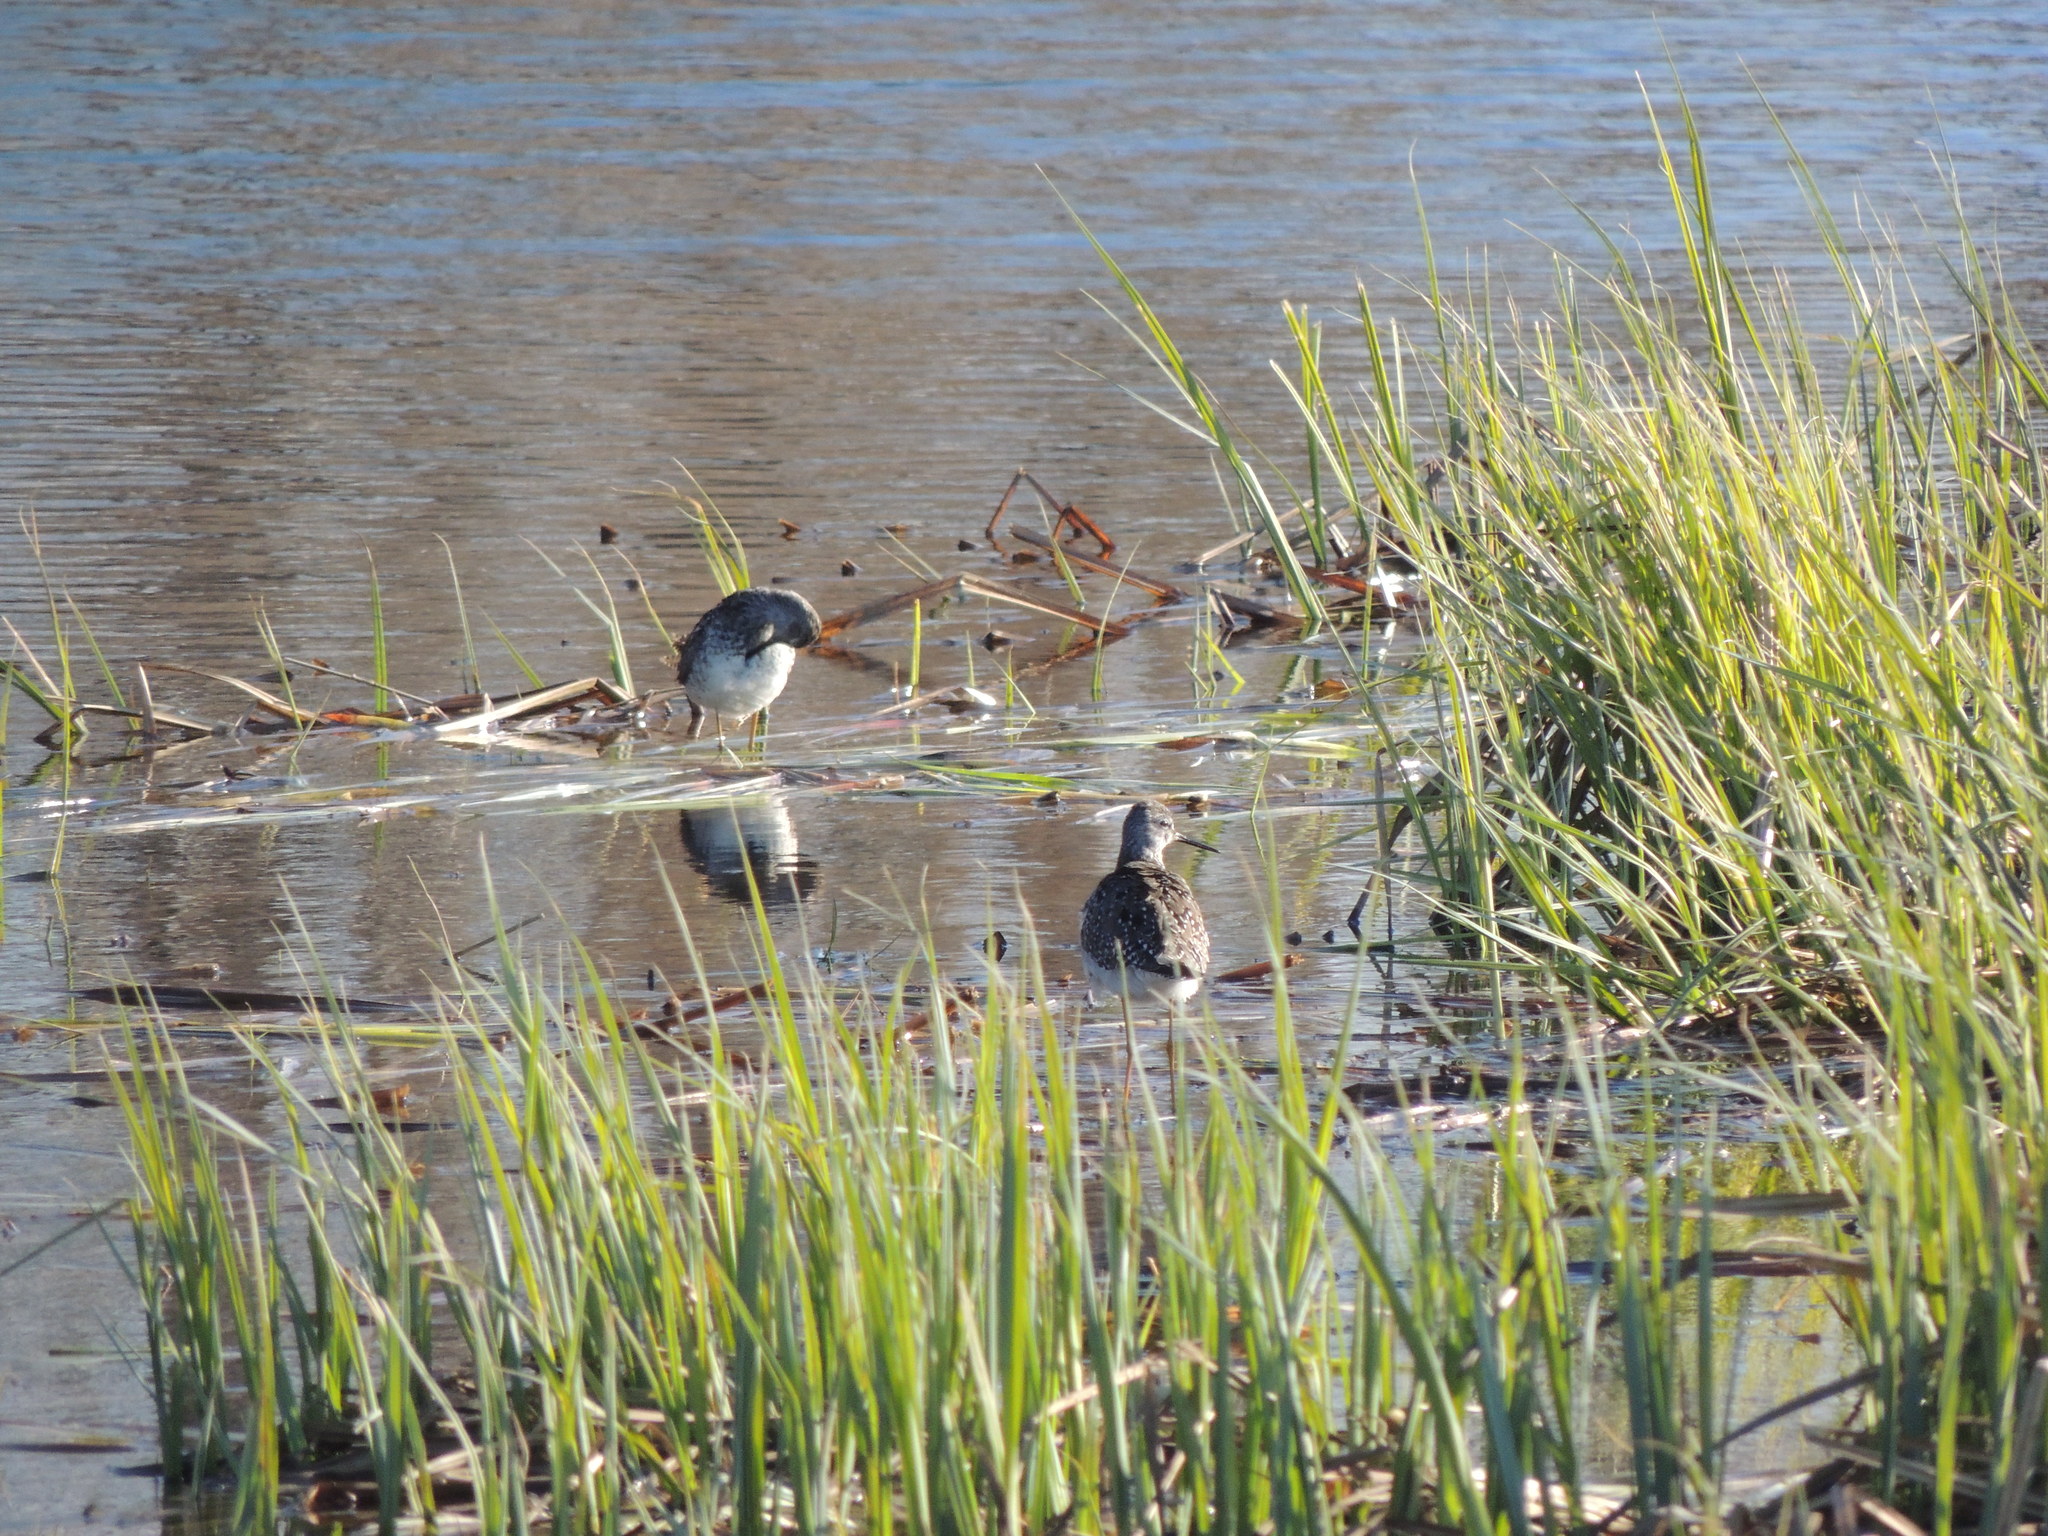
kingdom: Animalia
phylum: Chordata
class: Aves
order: Charadriiformes
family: Scolopacidae
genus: Tringa
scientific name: Tringa flavipes
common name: Lesser yellowlegs
